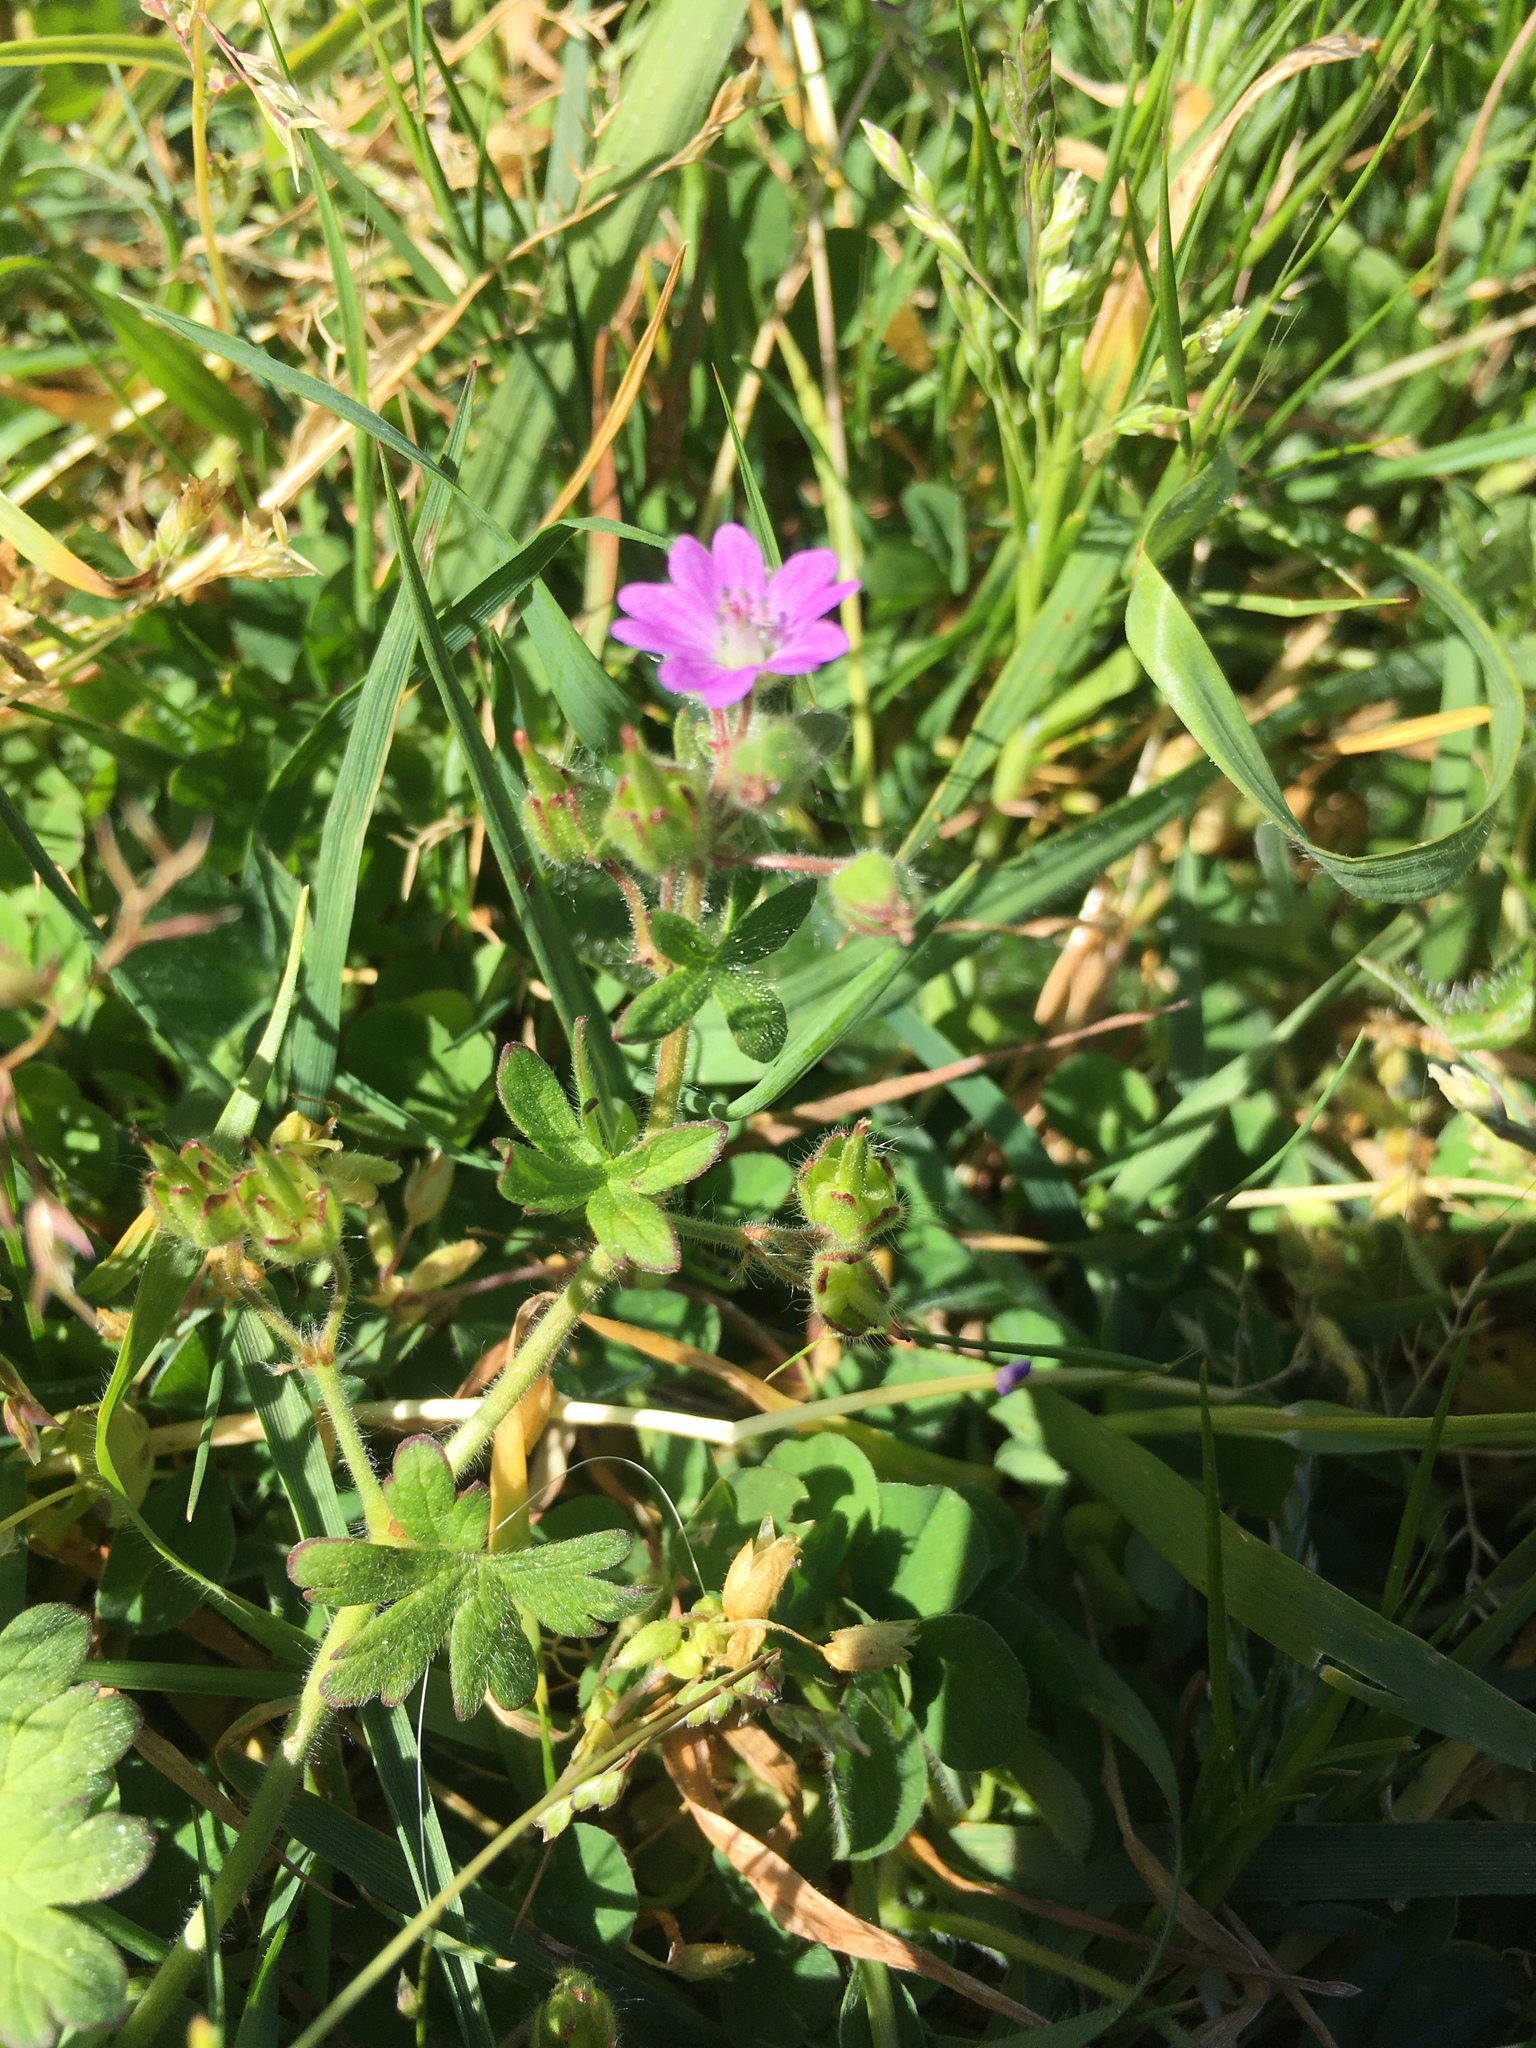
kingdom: Plantae
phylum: Tracheophyta
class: Magnoliopsida
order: Geraniales
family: Geraniaceae
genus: Geranium
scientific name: Geranium molle
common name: Dove's-foot crane's-bill
